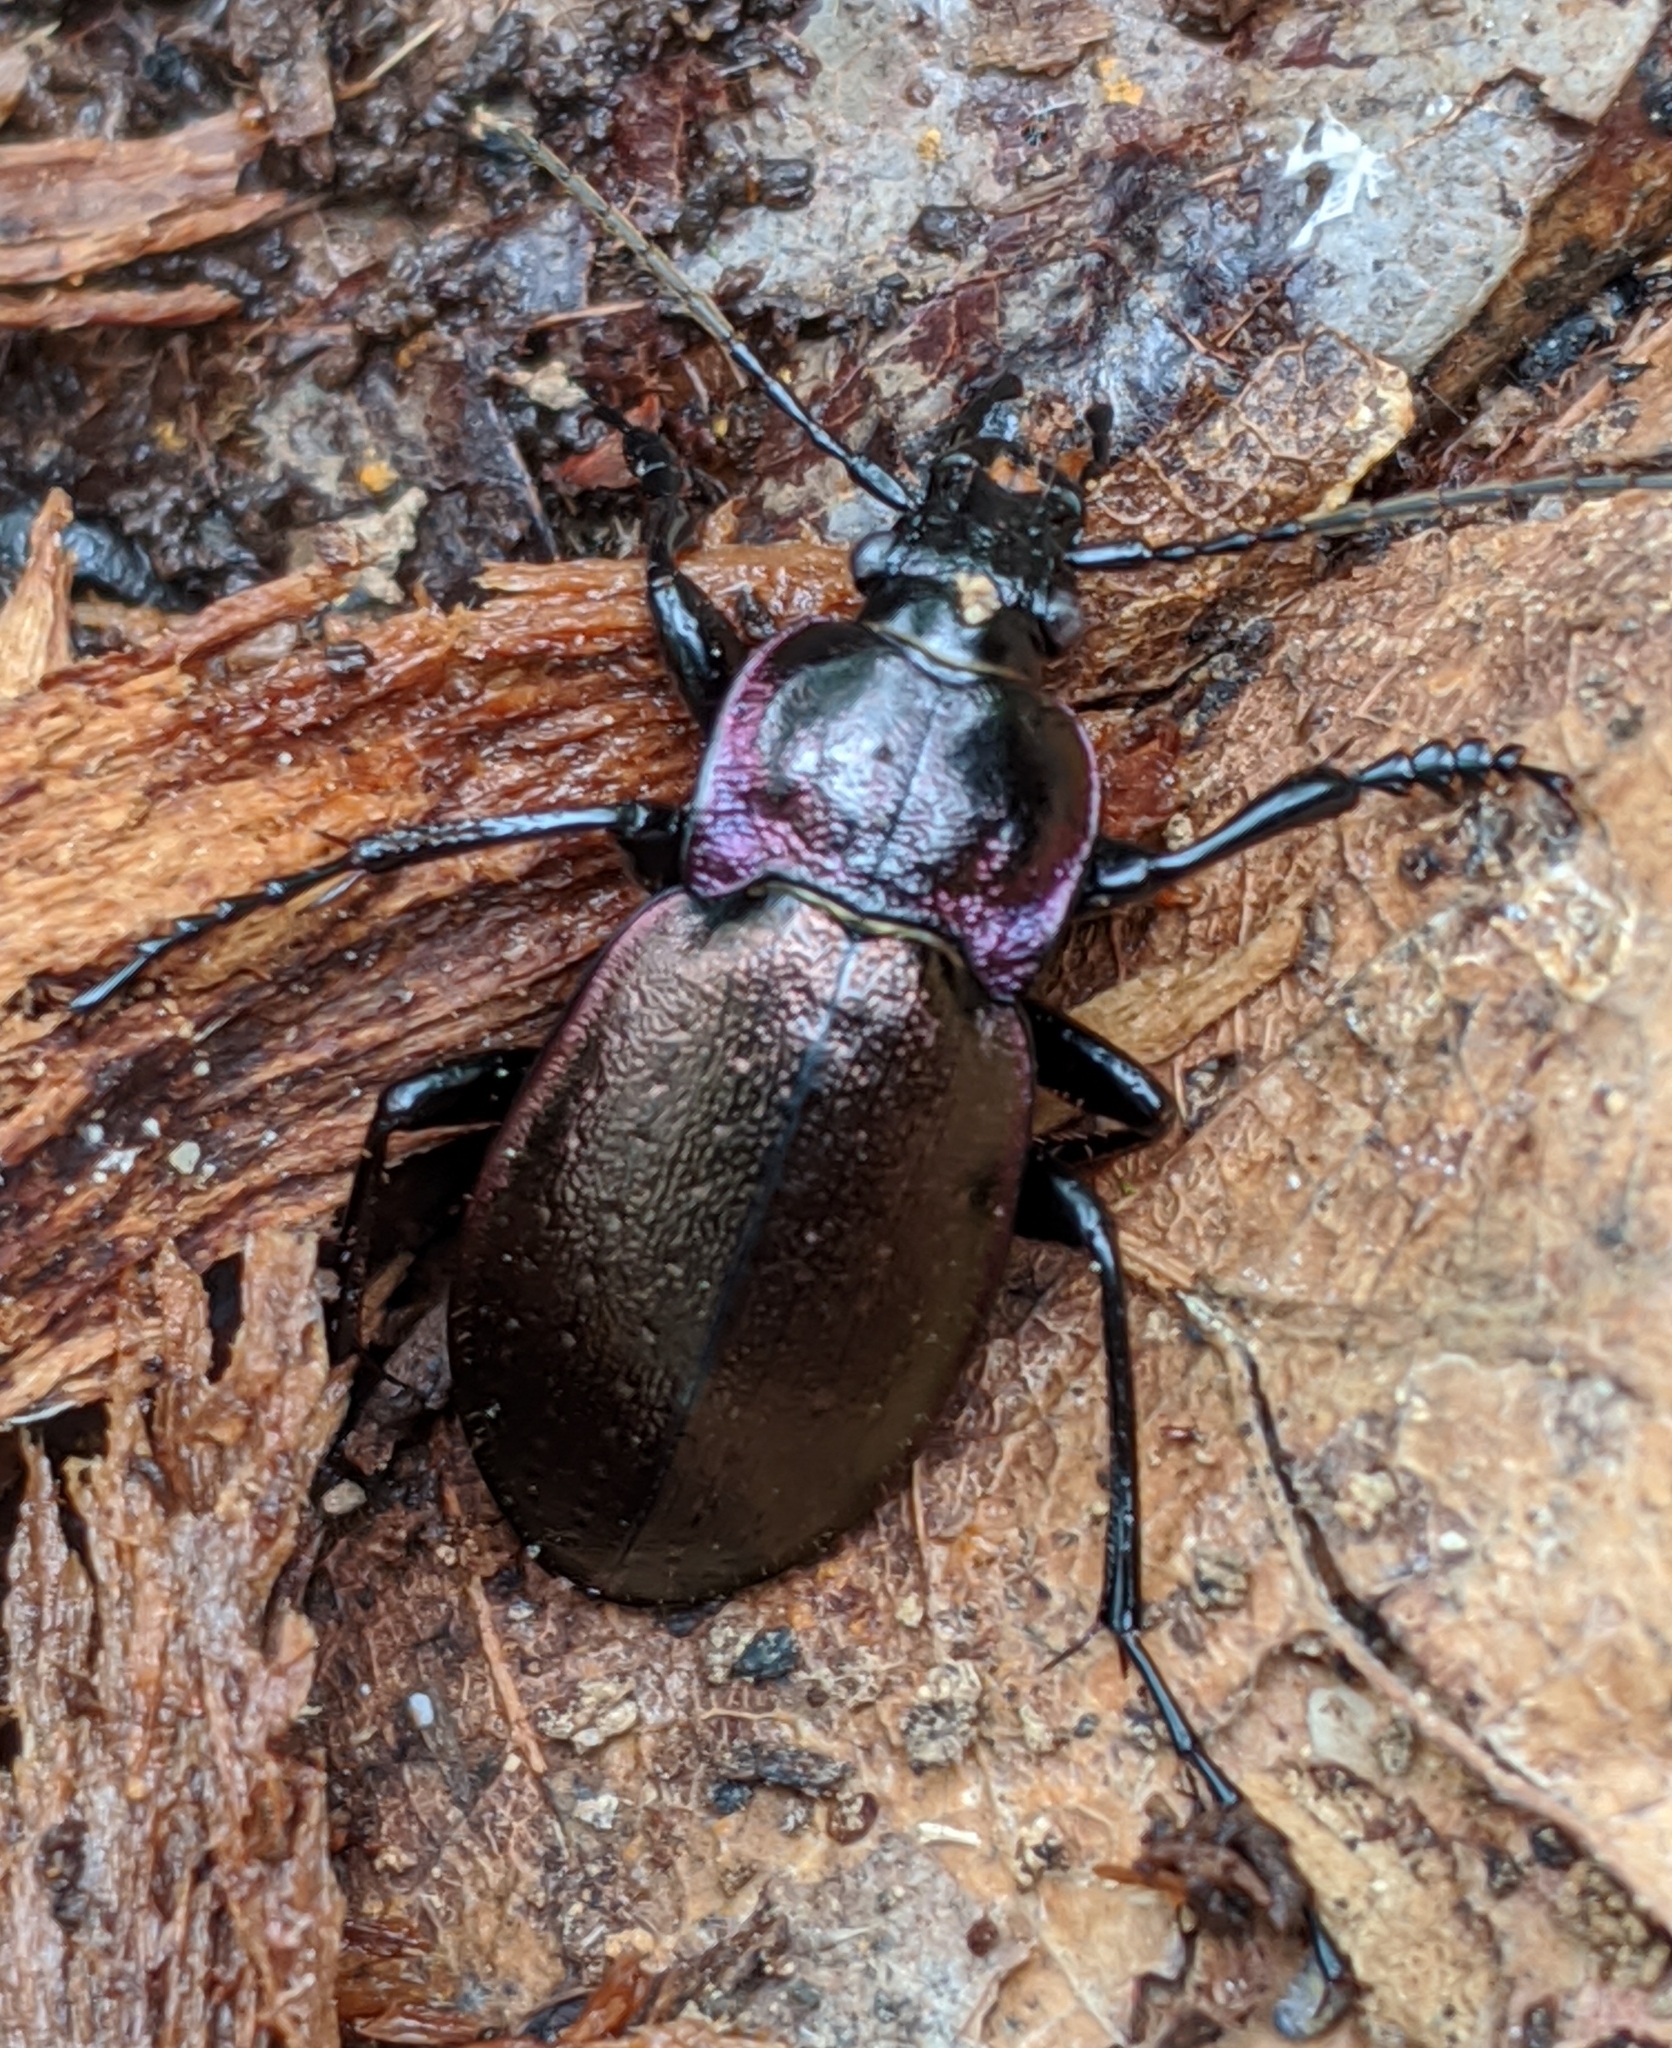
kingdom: Animalia
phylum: Arthropoda
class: Insecta
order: Coleoptera
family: Carabidae
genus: Carabus
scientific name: Carabus nemoralis
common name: European ground beetle
